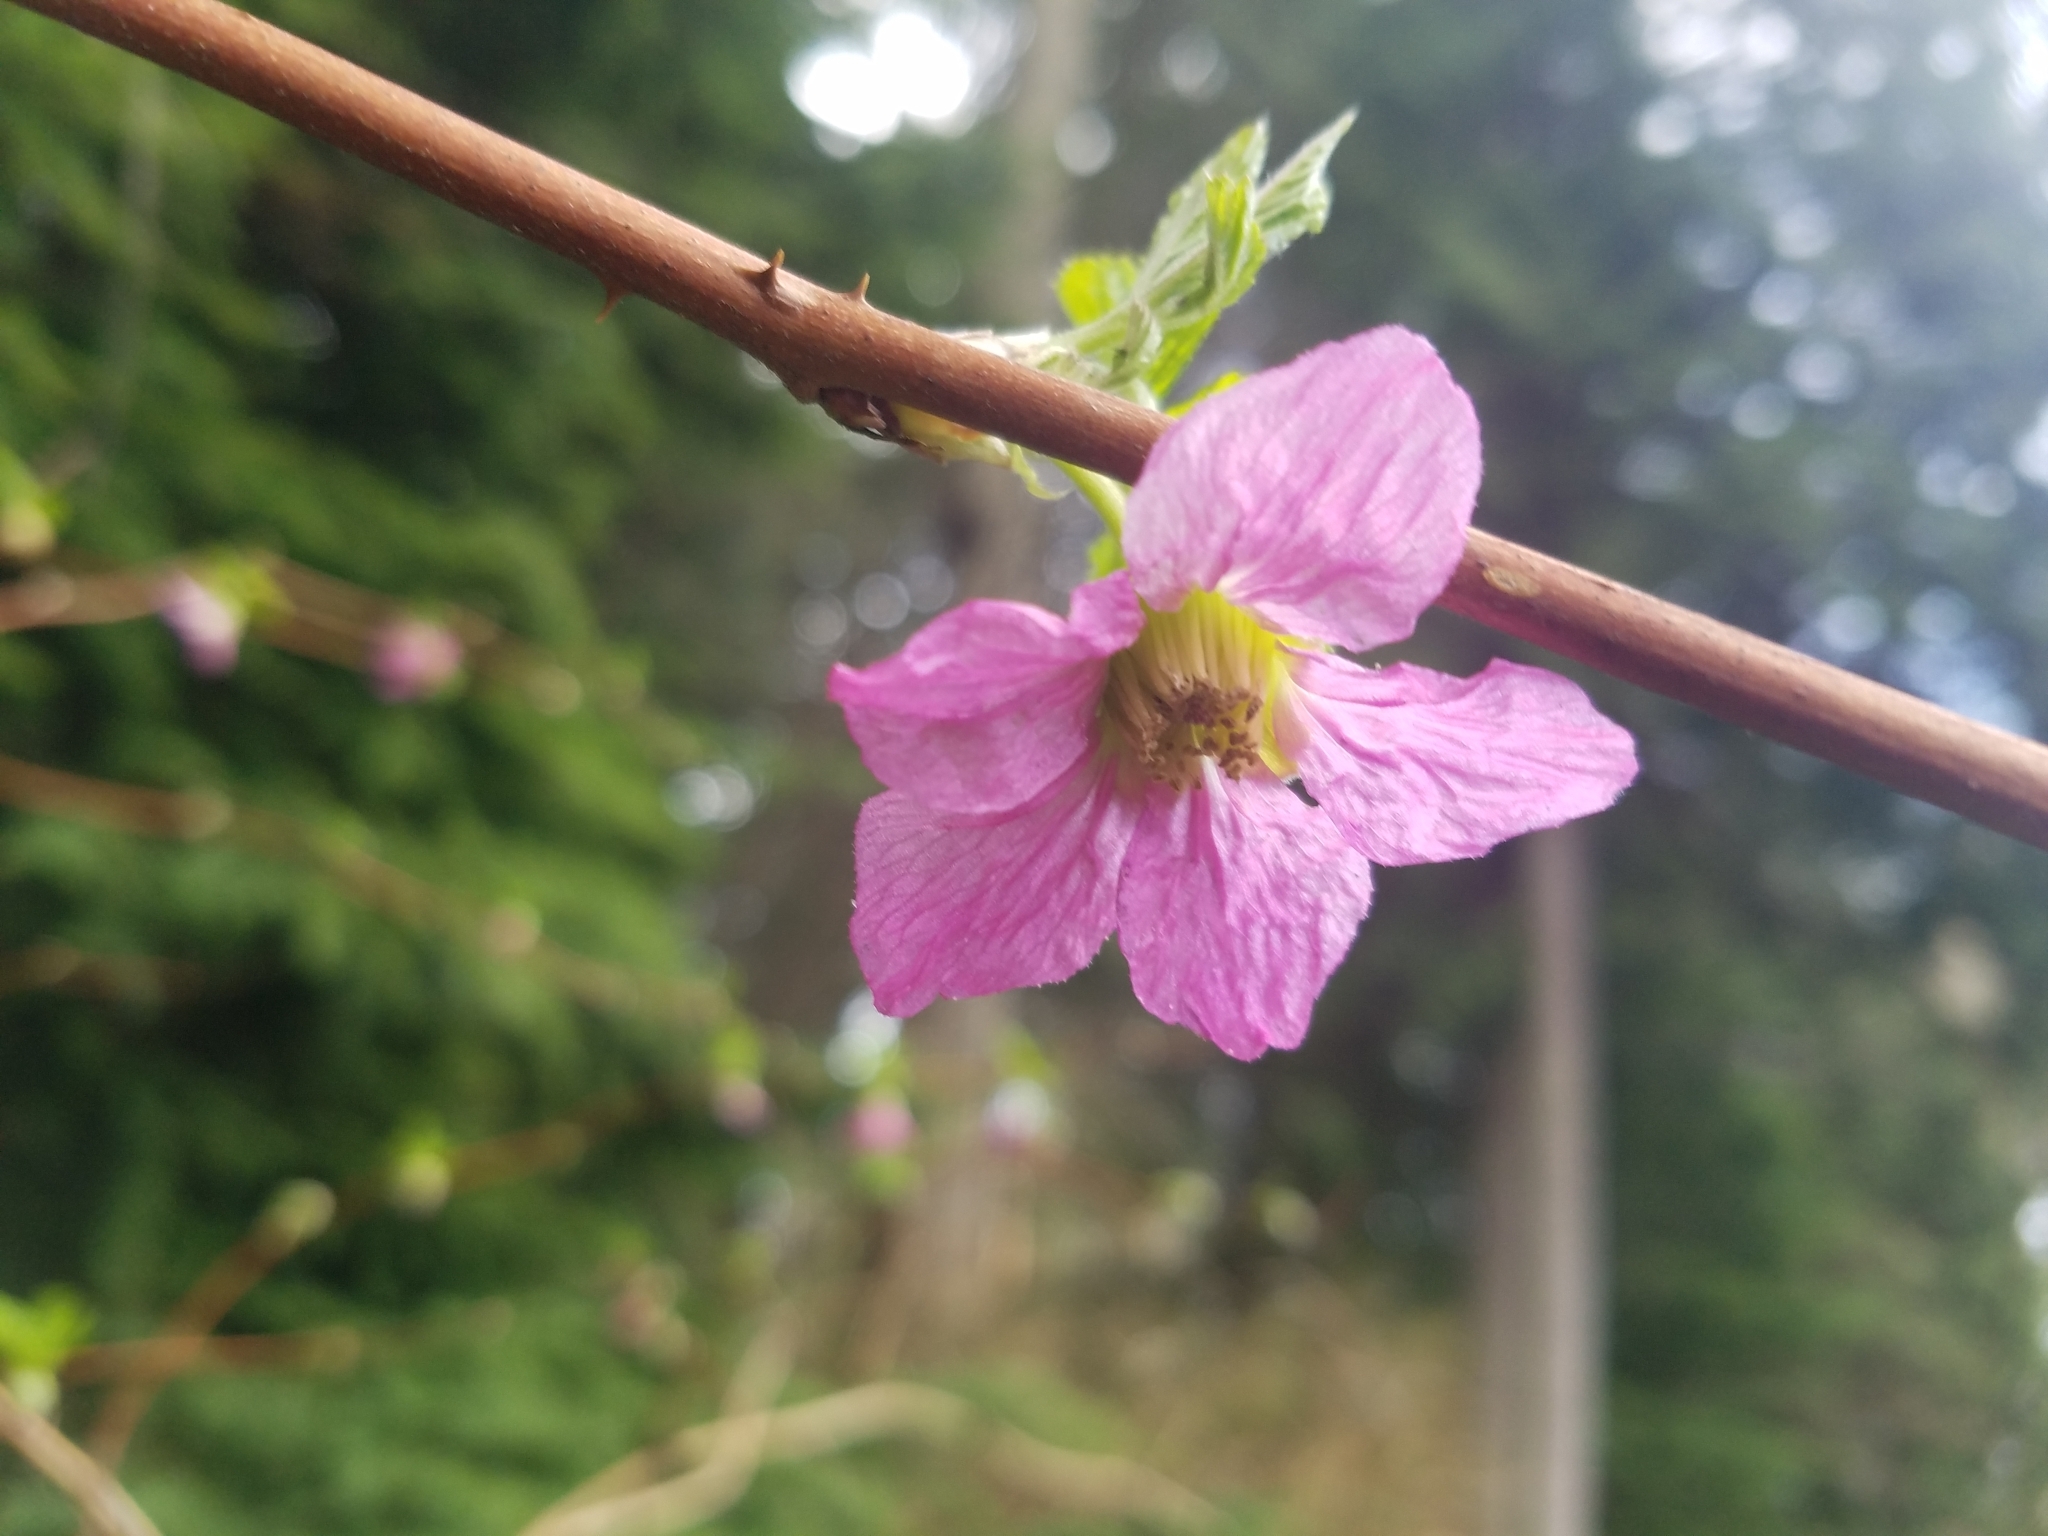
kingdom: Plantae
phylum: Tracheophyta
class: Magnoliopsida
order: Rosales
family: Rosaceae
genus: Rubus
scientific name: Rubus spectabilis
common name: Salmonberry
